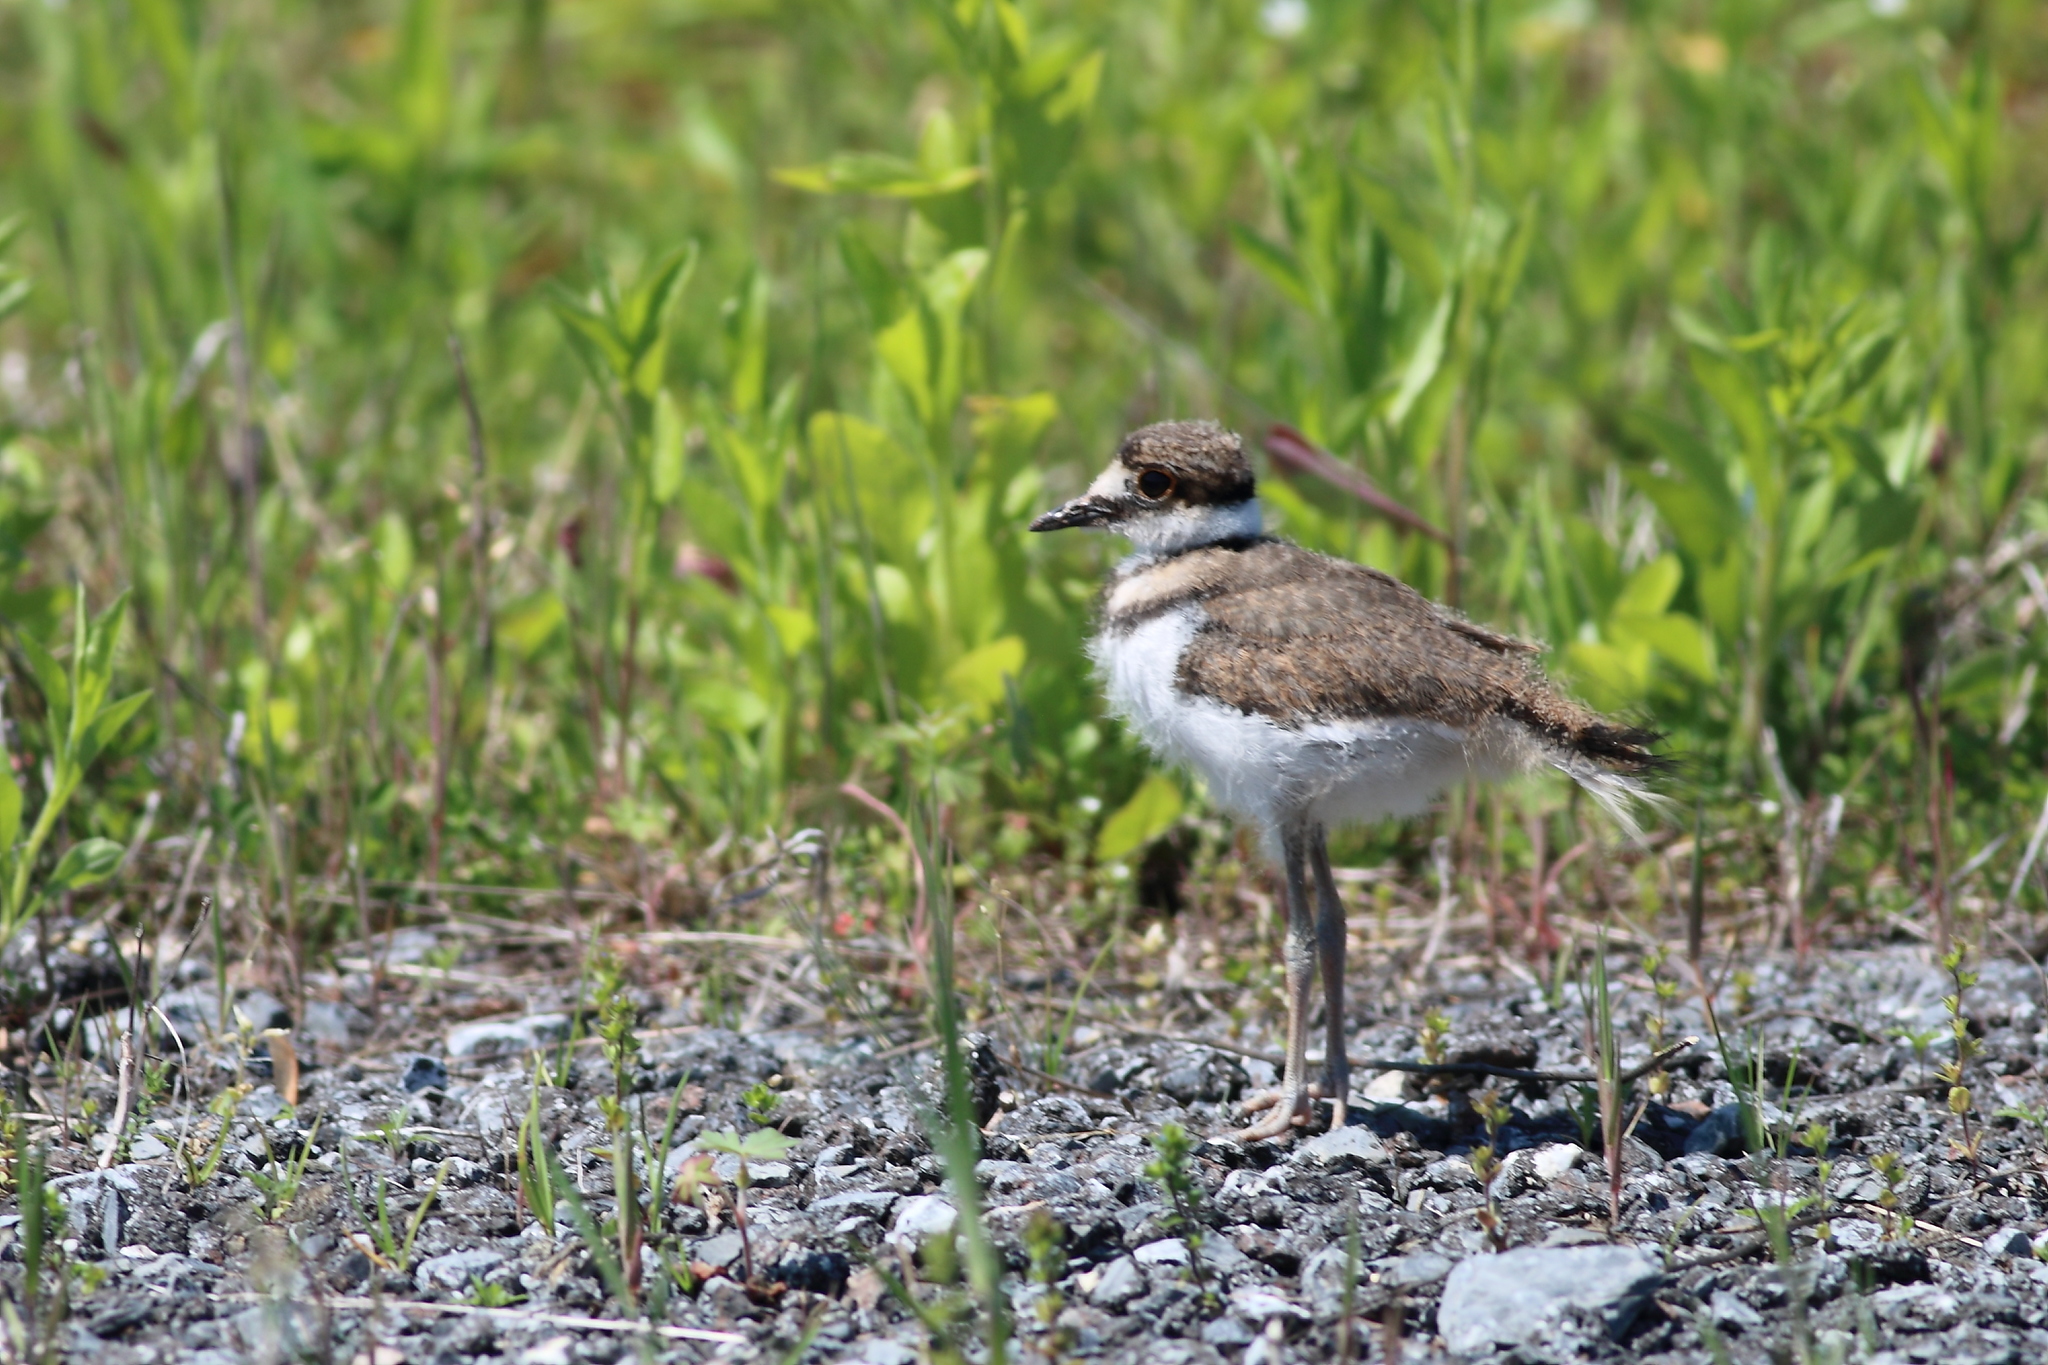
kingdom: Animalia
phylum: Chordata
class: Aves
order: Charadriiformes
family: Charadriidae
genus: Charadrius
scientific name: Charadrius vociferus
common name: Killdeer
